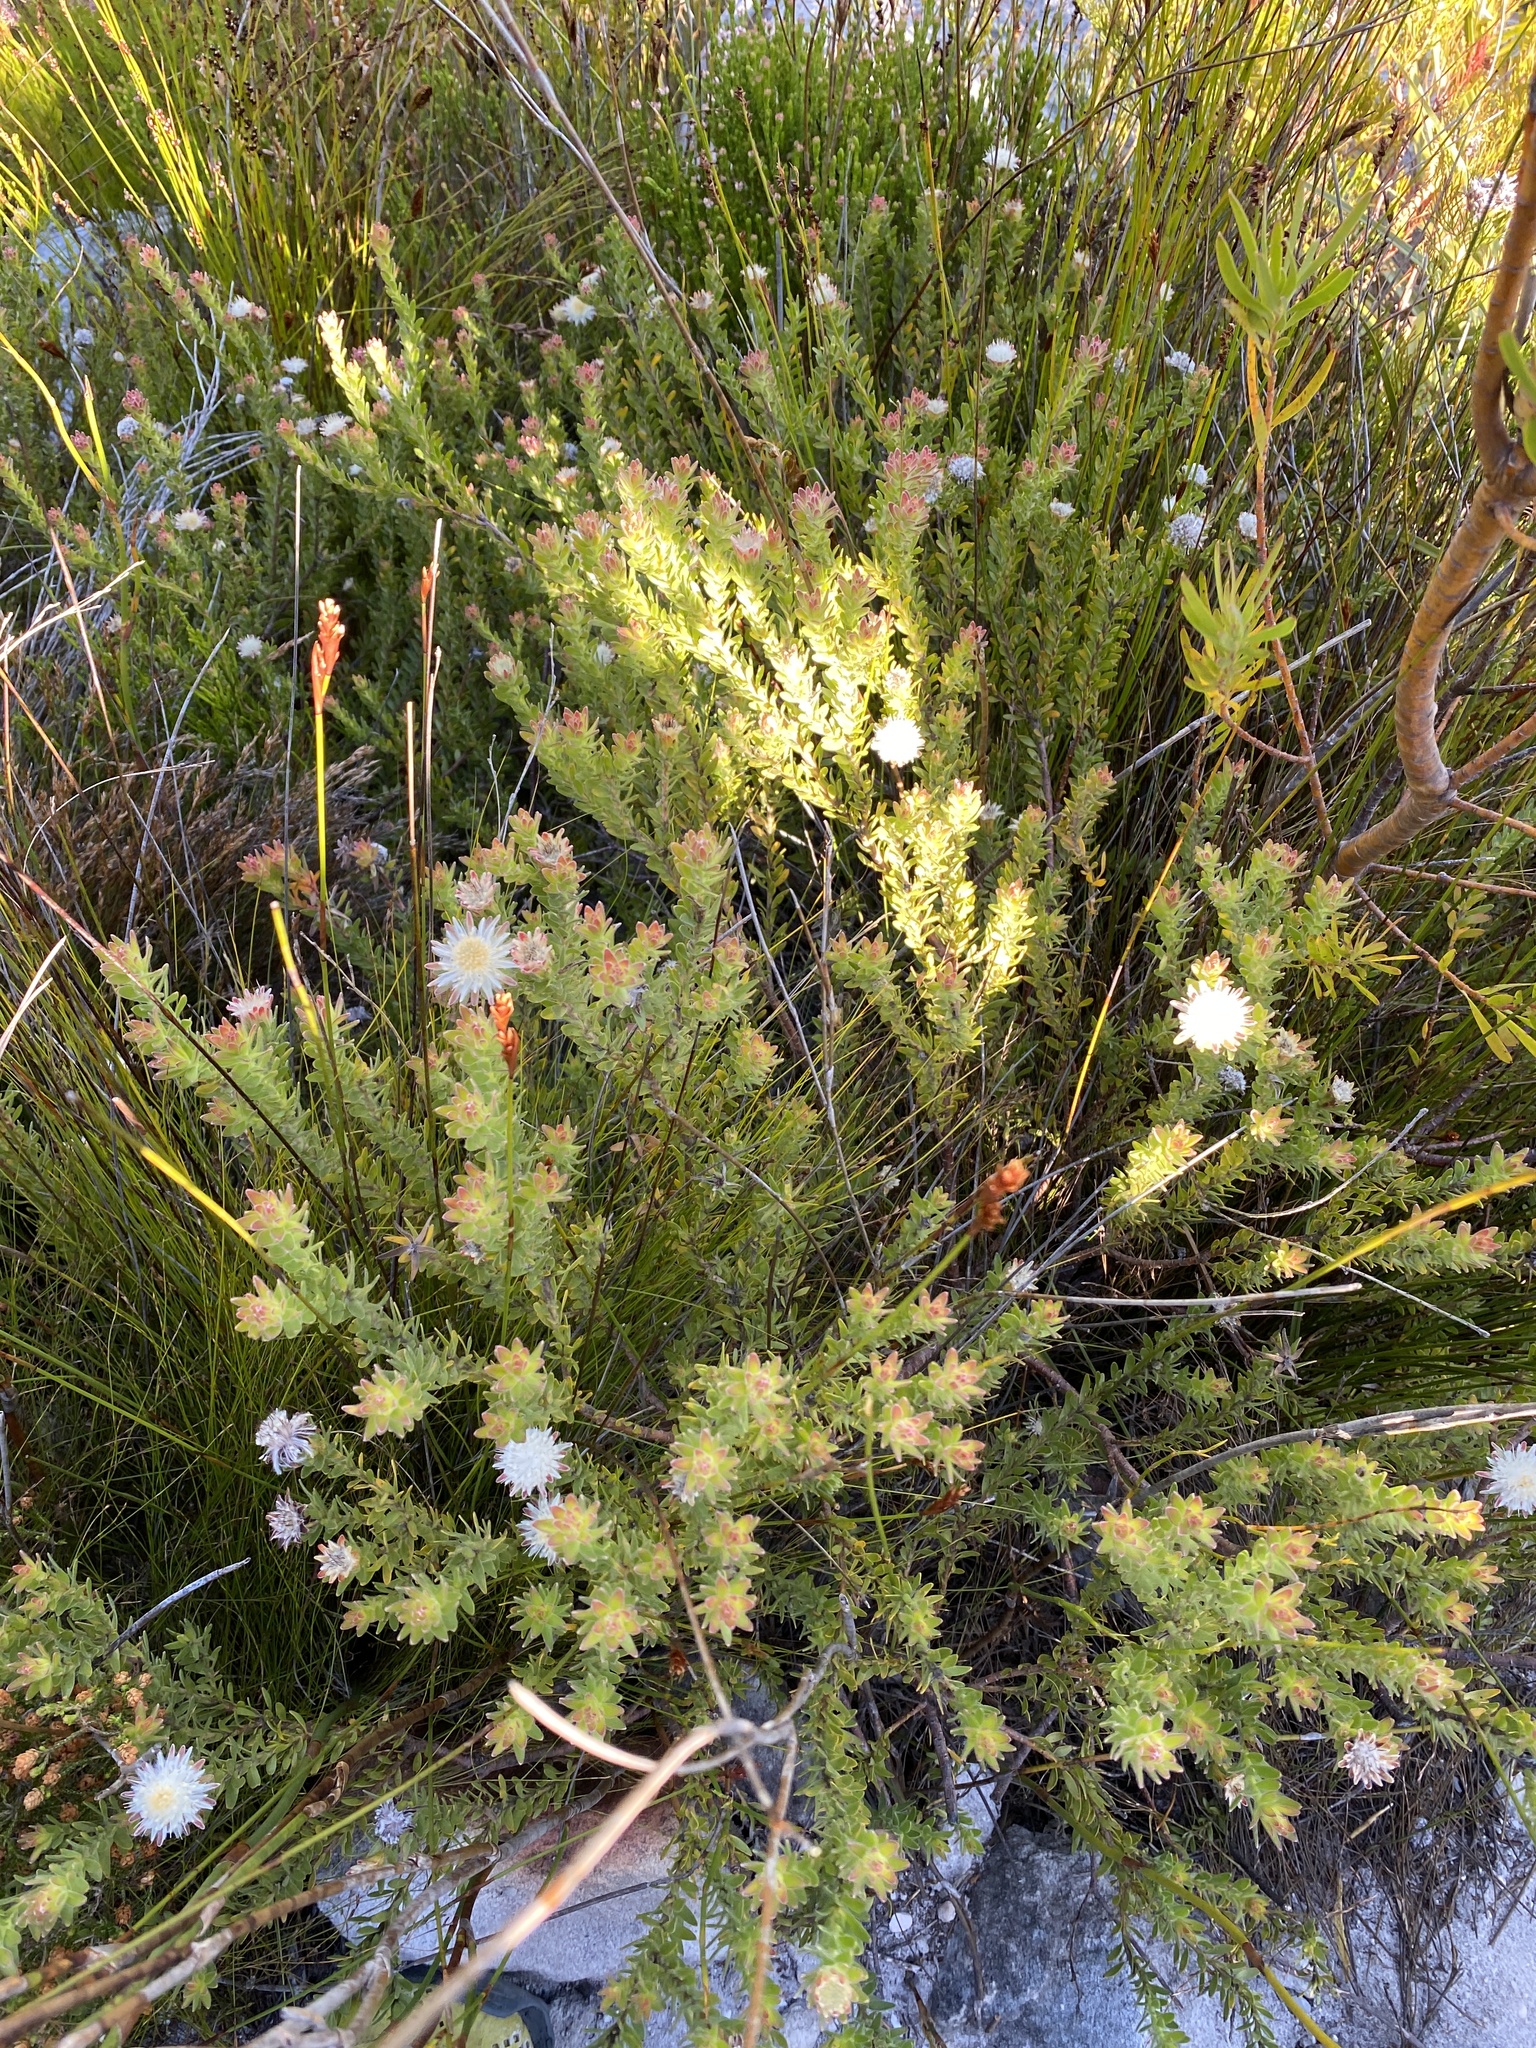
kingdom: Plantae
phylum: Tracheophyta
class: Magnoliopsida
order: Proteales
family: Proteaceae
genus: Diastella
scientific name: Diastella fraterna
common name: Palmiet silkypuff
